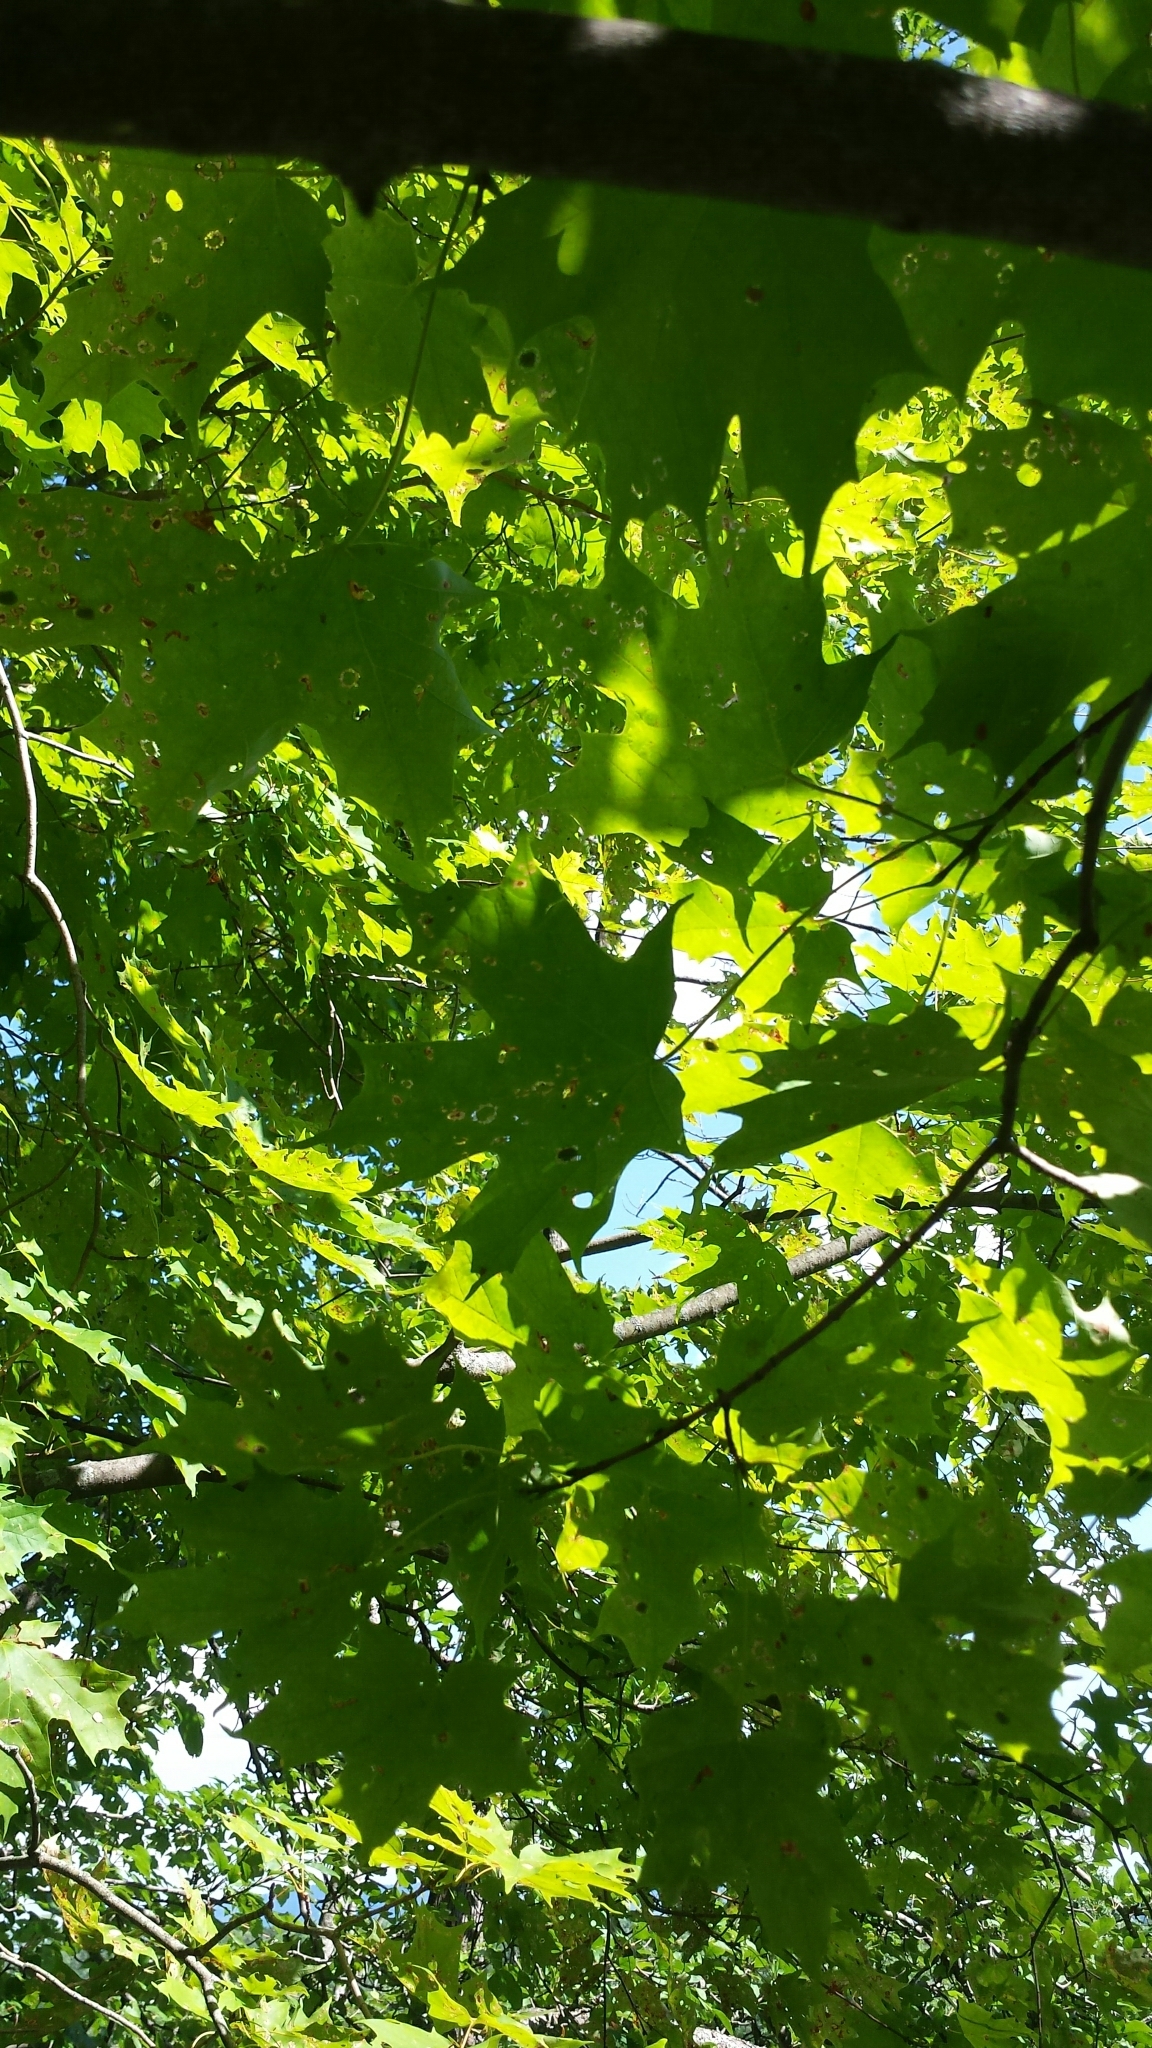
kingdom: Plantae
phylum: Tracheophyta
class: Magnoliopsida
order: Sapindales
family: Sapindaceae
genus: Acer
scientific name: Acer saccharum
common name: Sugar maple
